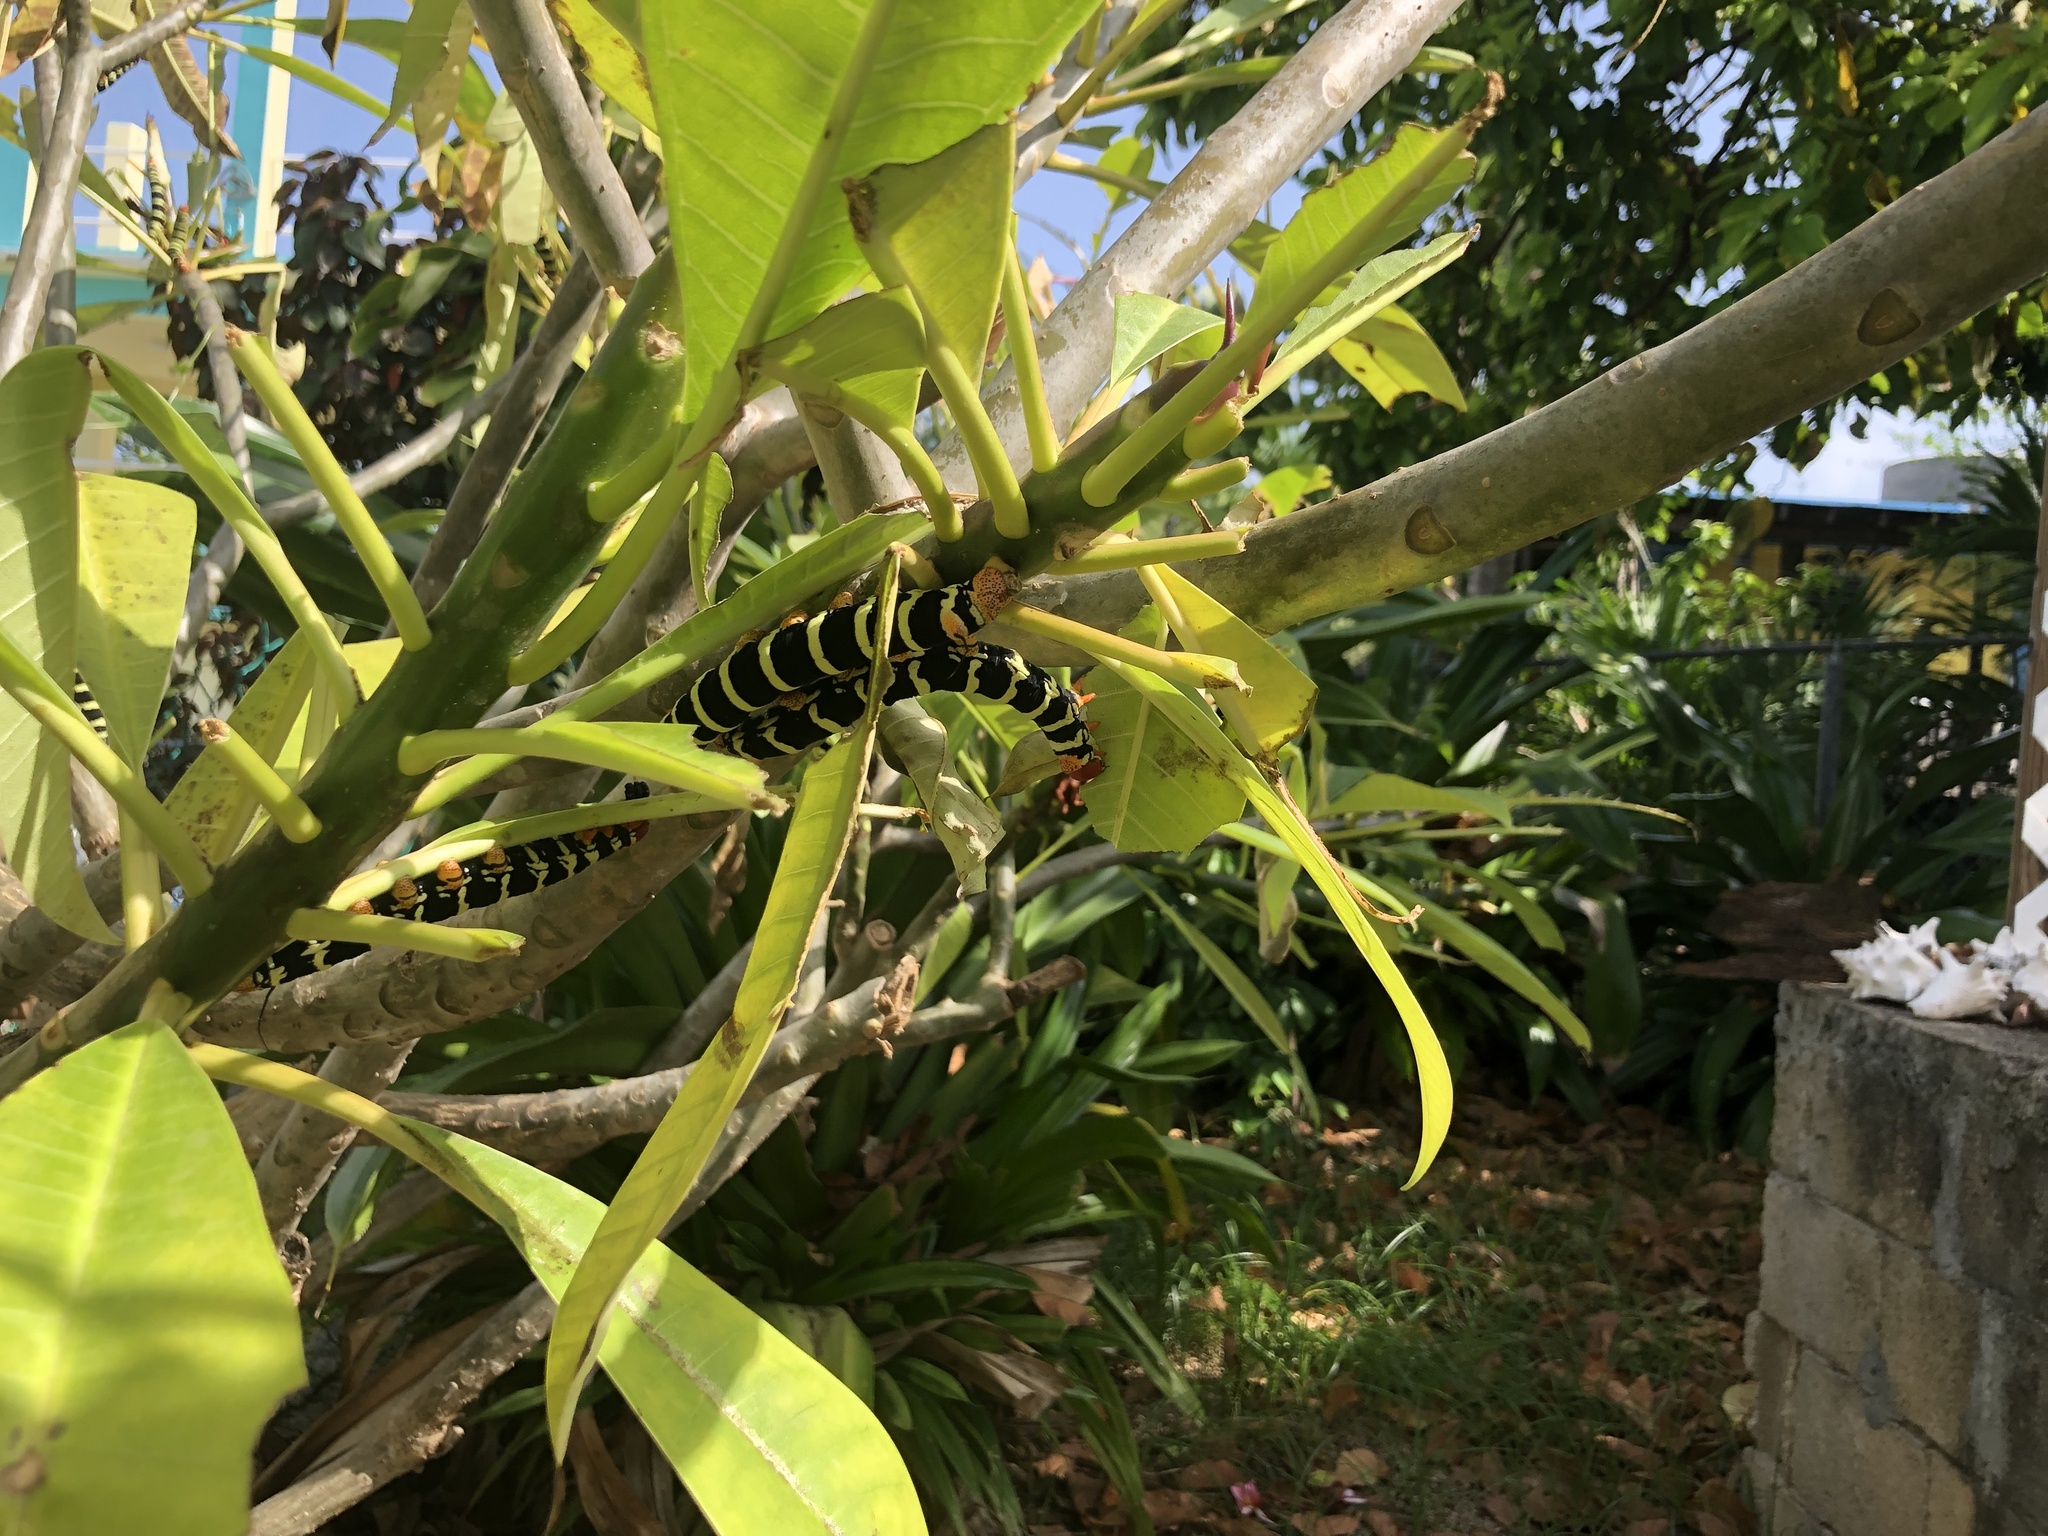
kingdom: Animalia
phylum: Arthropoda
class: Insecta
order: Lepidoptera
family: Sphingidae
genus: Pseudosphinx
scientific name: Pseudosphinx tetrio
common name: Tetrio sphinx
